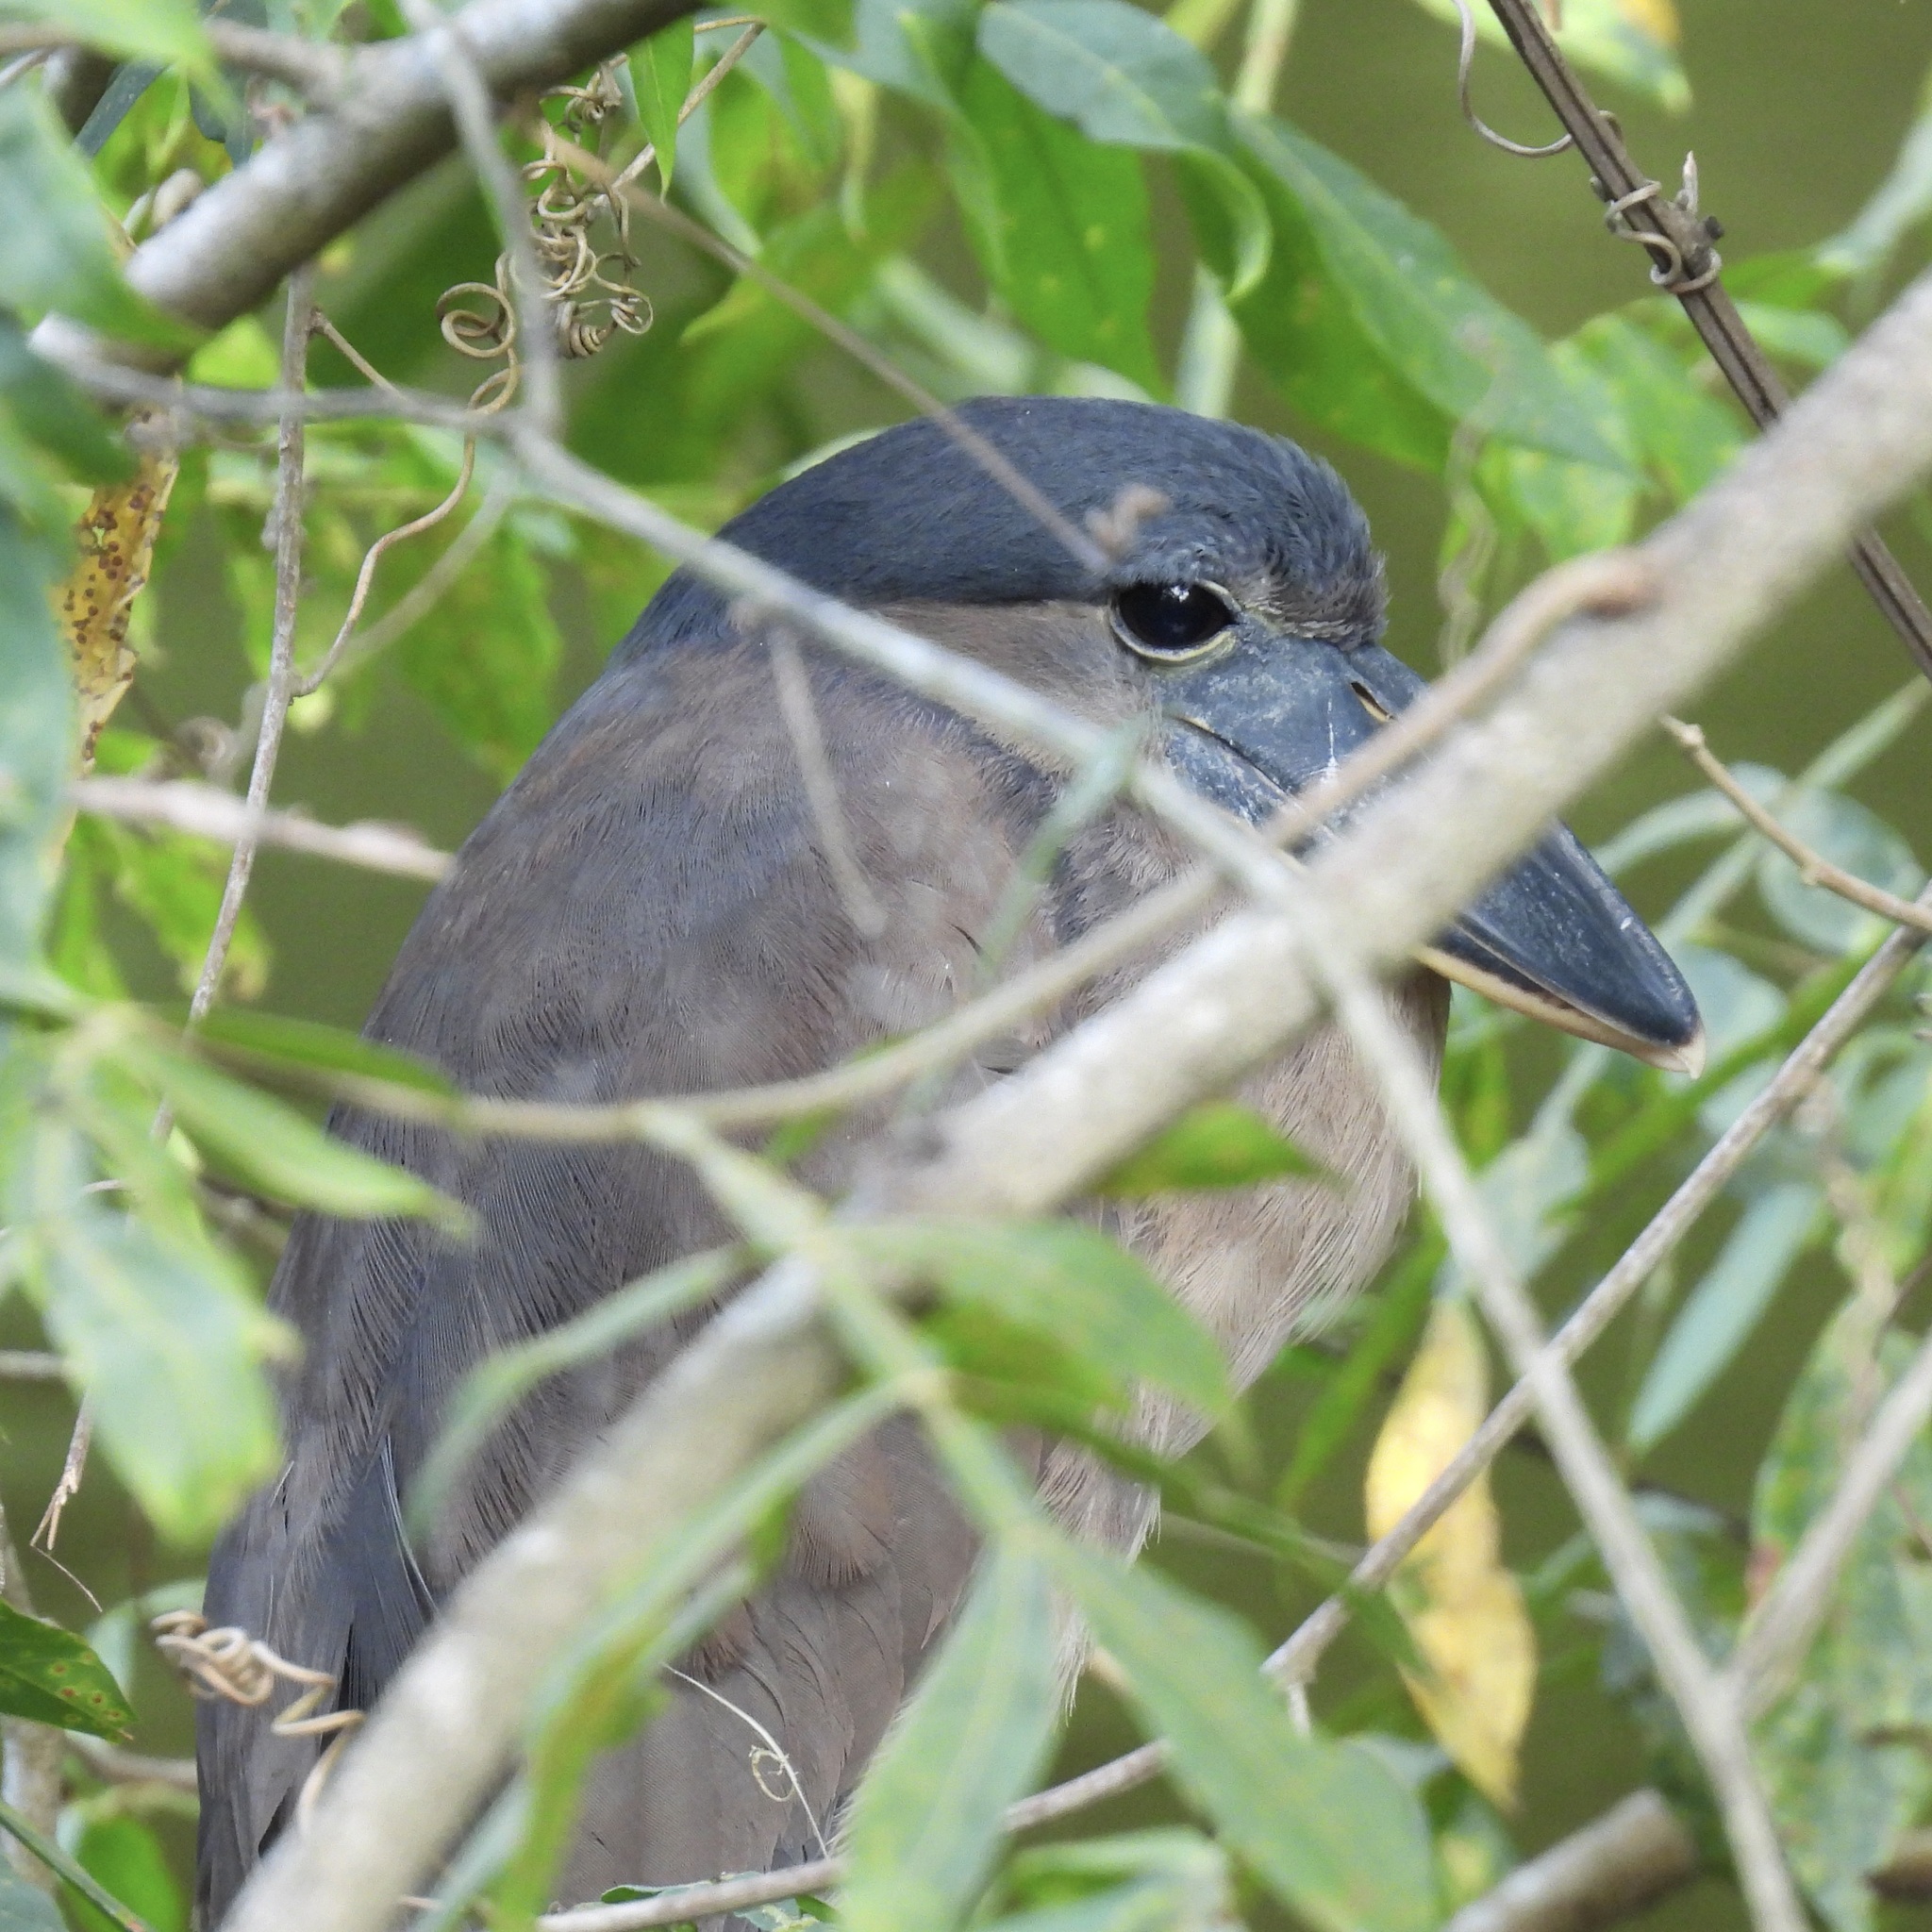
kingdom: Animalia
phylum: Chordata
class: Aves
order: Pelecaniformes
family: Ardeidae
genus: Cochlearius
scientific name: Cochlearius cochlearius
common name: Boat-billed heron
